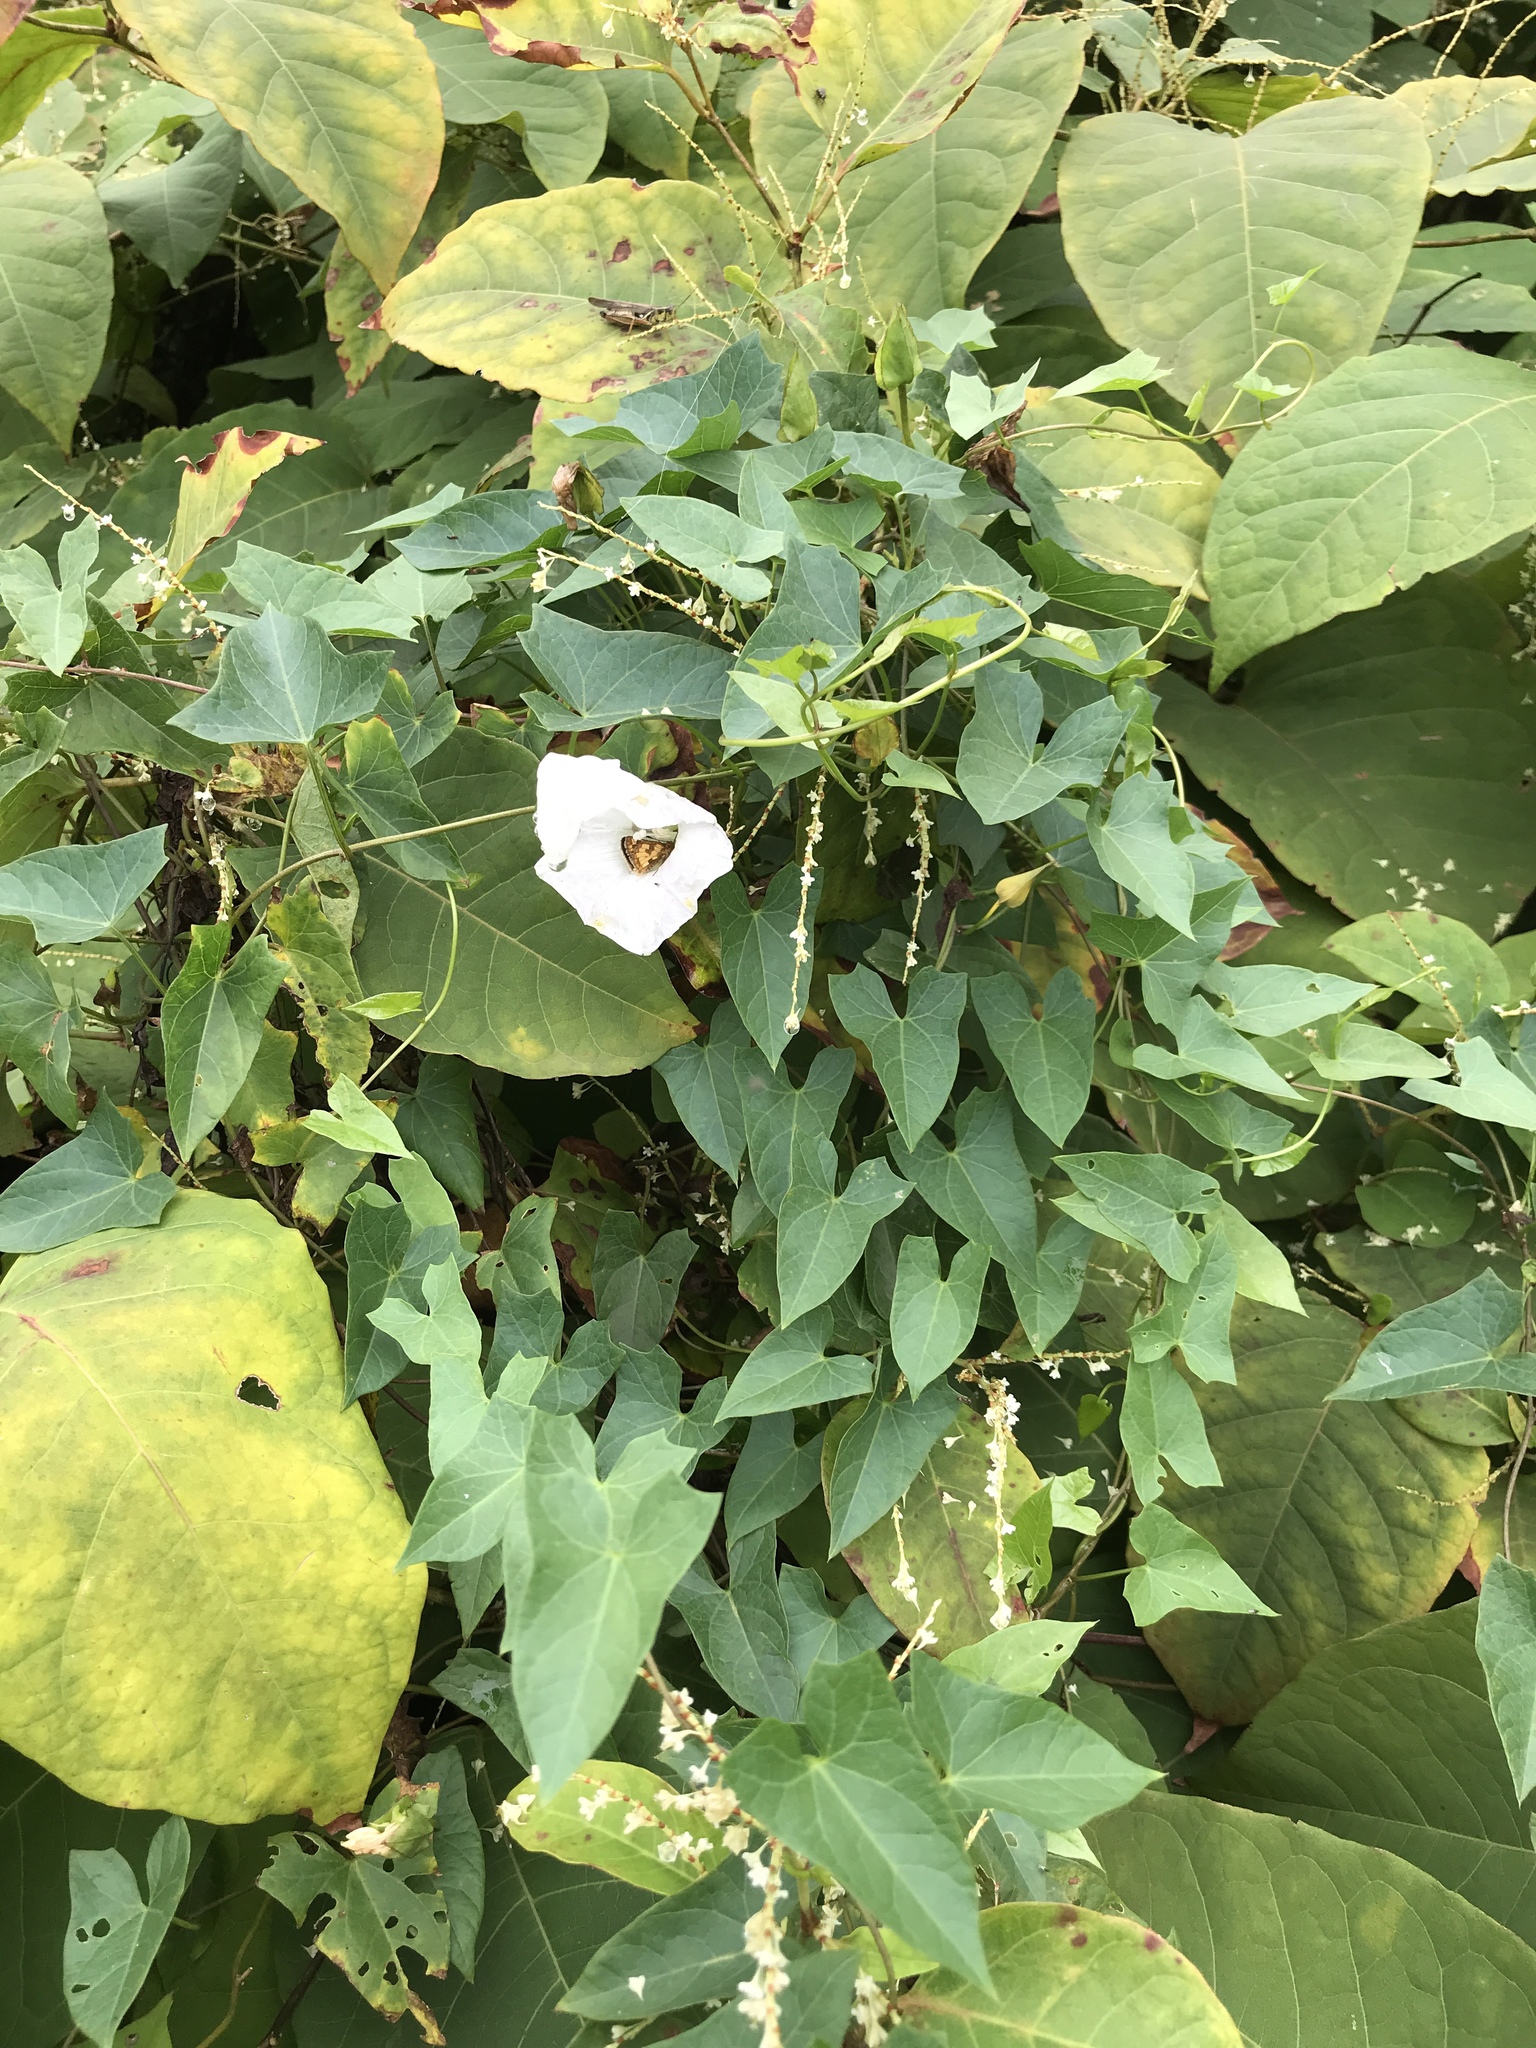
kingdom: Plantae
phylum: Tracheophyta
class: Magnoliopsida
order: Solanales
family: Convolvulaceae
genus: Calystegia
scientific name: Calystegia sepium
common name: Hedge bindweed
